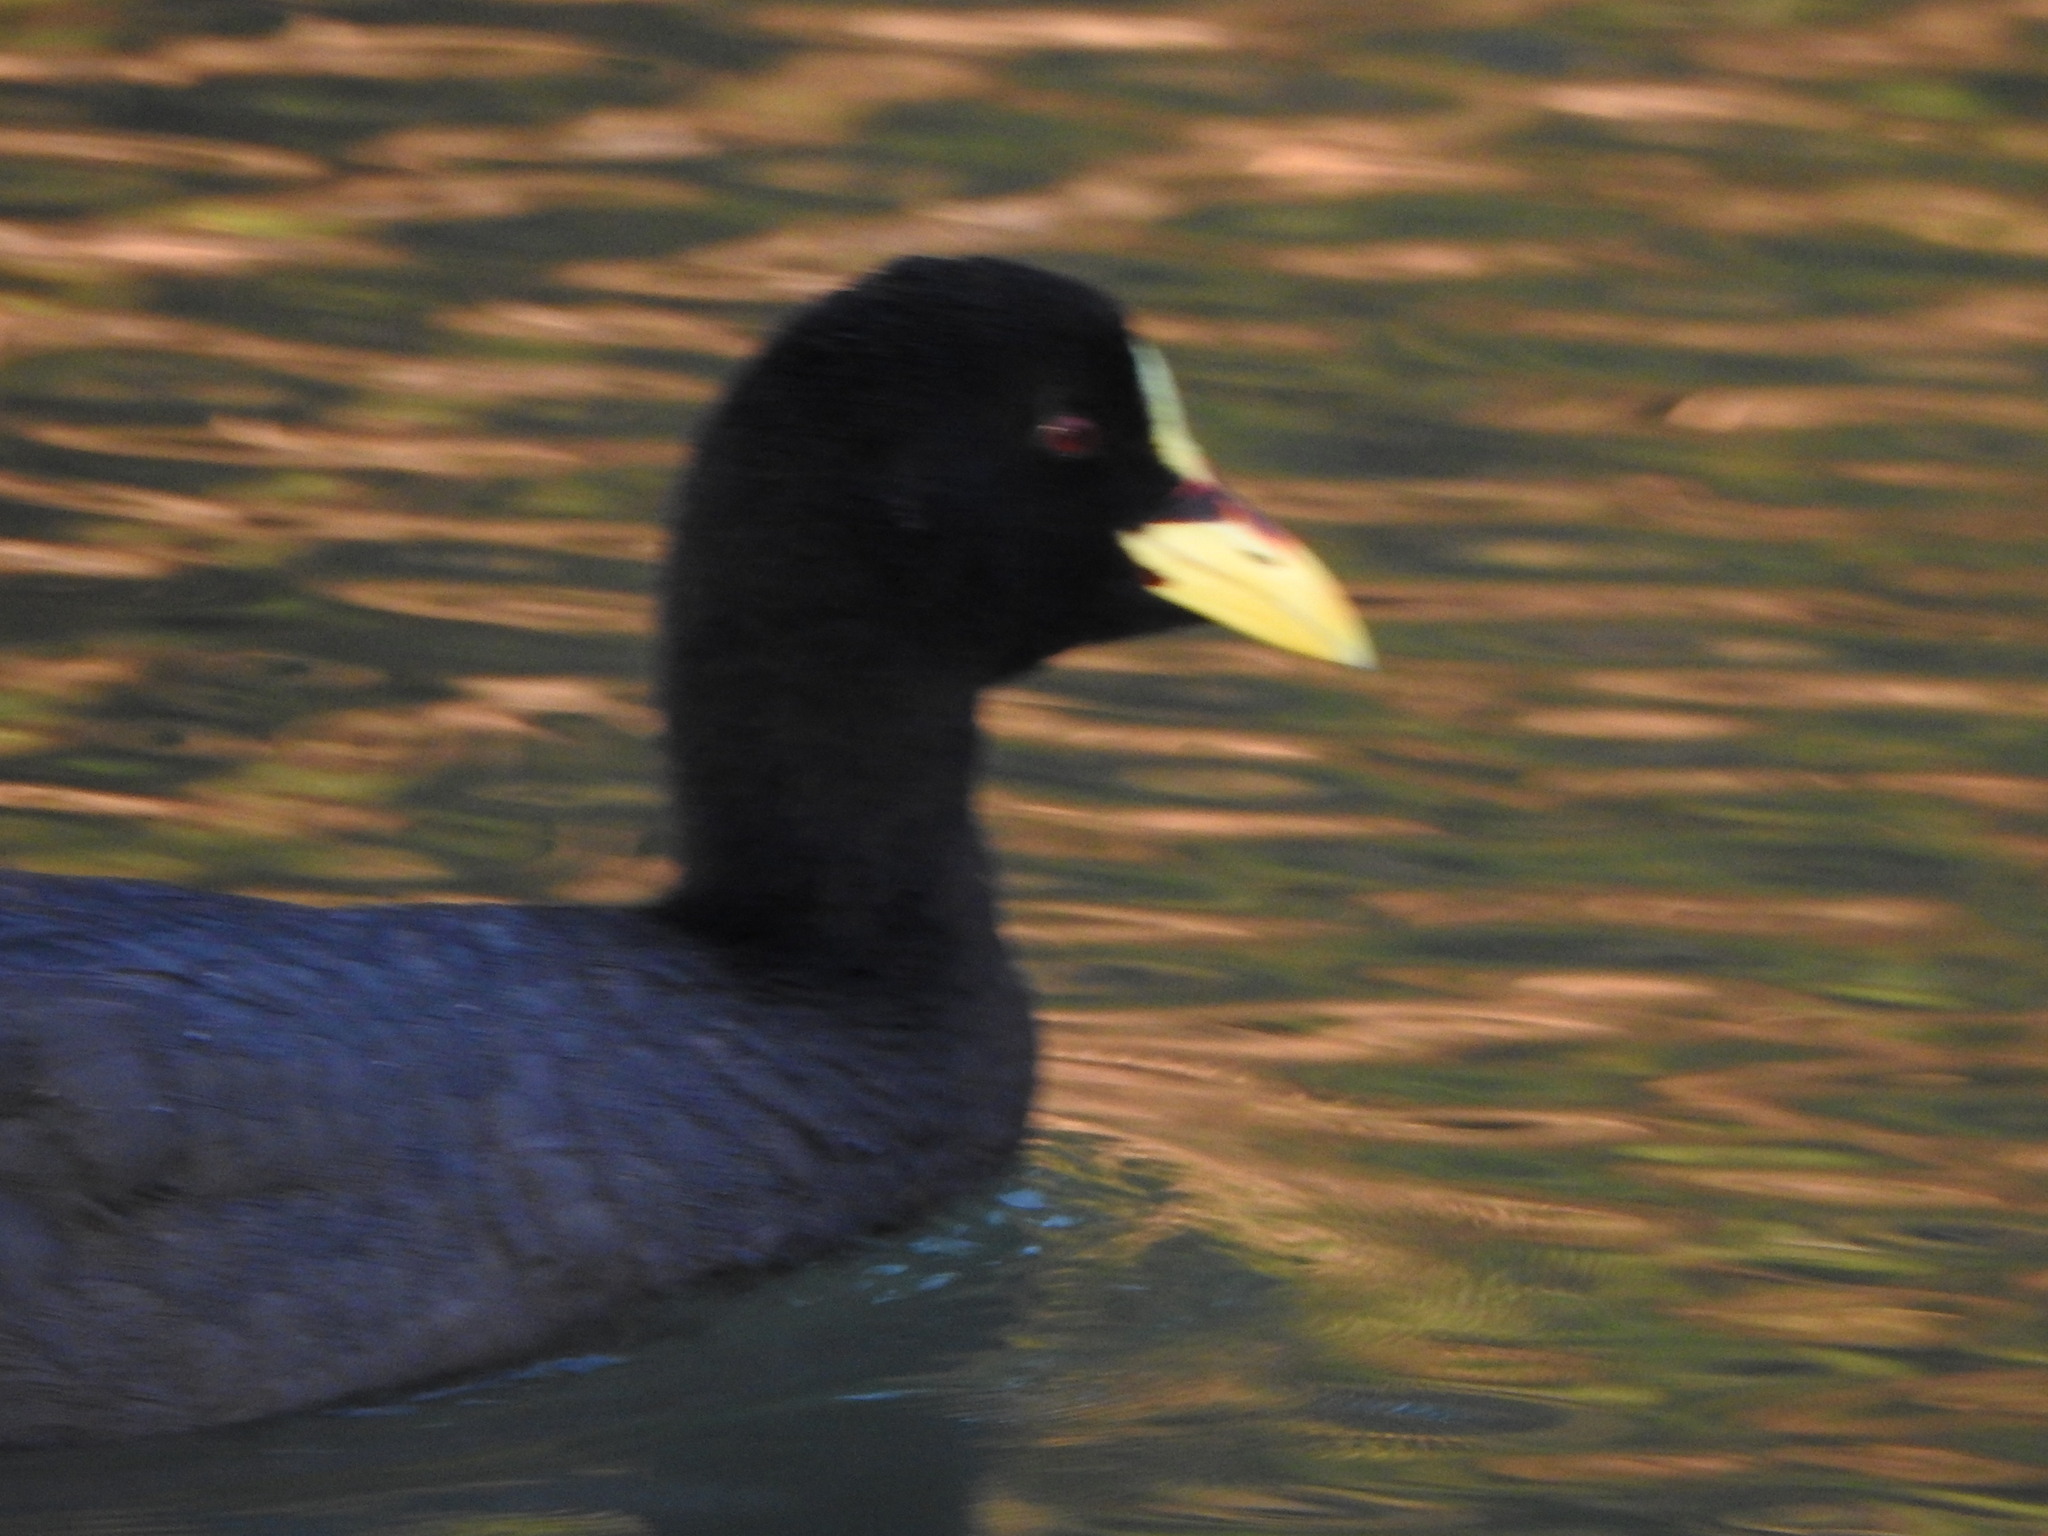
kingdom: Animalia
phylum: Chordata
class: Aves
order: Gruiformes
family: Rallidae
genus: Fulica
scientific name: Fulica armillata
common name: Red-gartered coot
